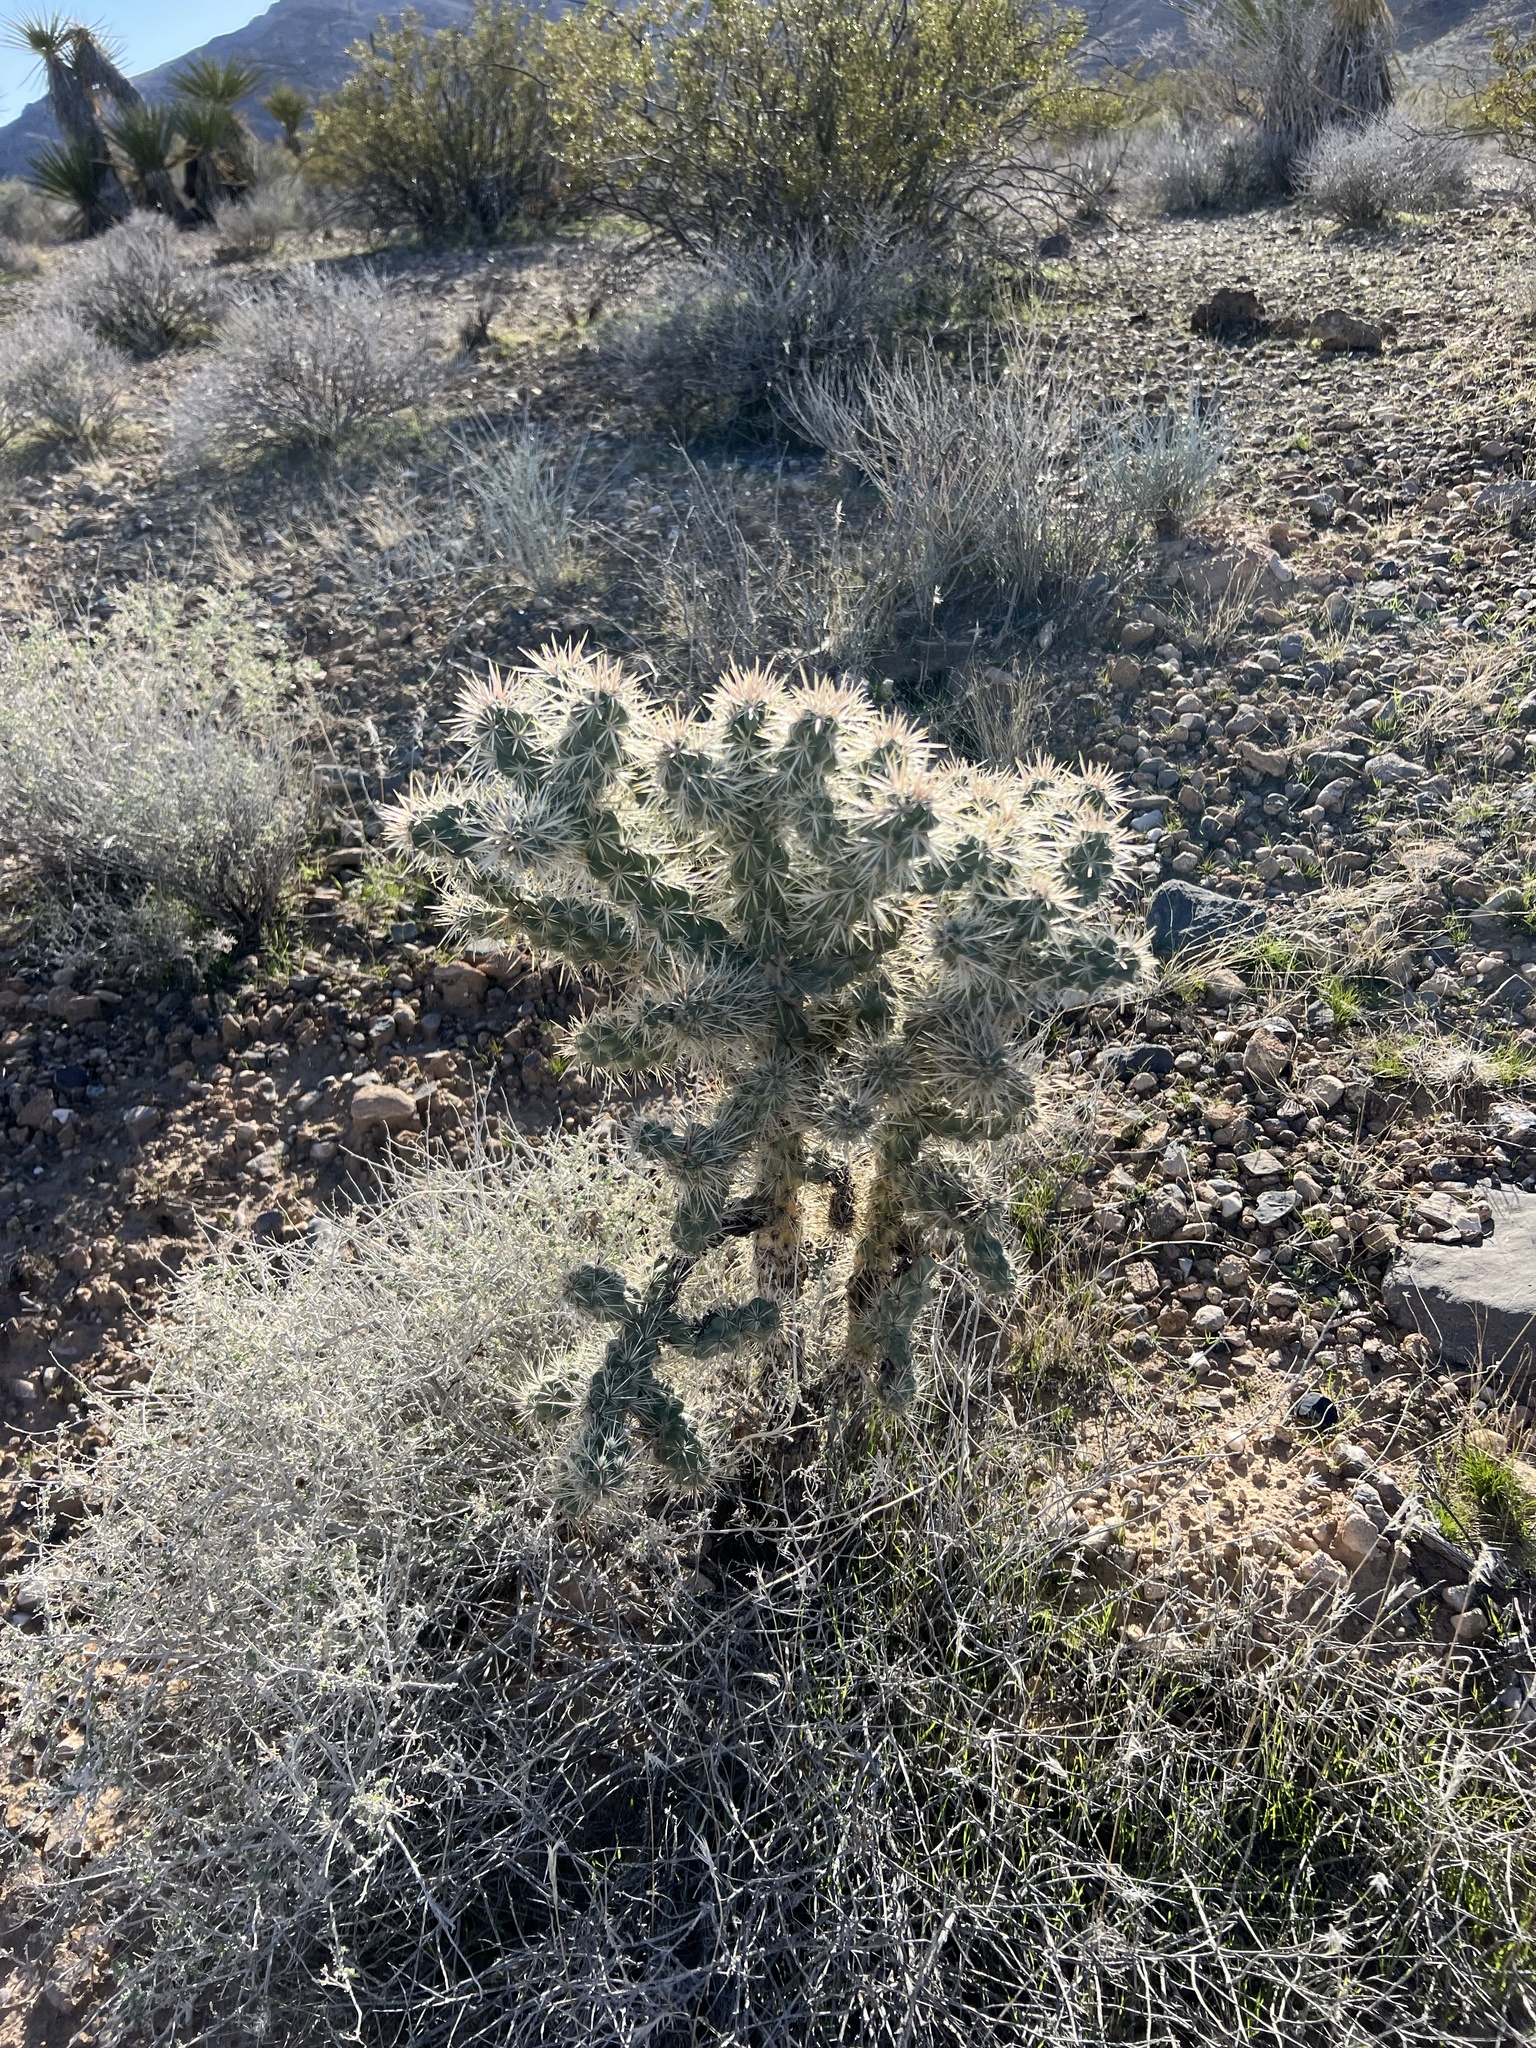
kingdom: Plantae
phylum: Tracheophyta
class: Magnoliopsida
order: Caryophyllales
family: Cactaceae
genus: Cylindropuntia
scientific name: Cylindropuntia echinocarpa
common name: Ground cholla
